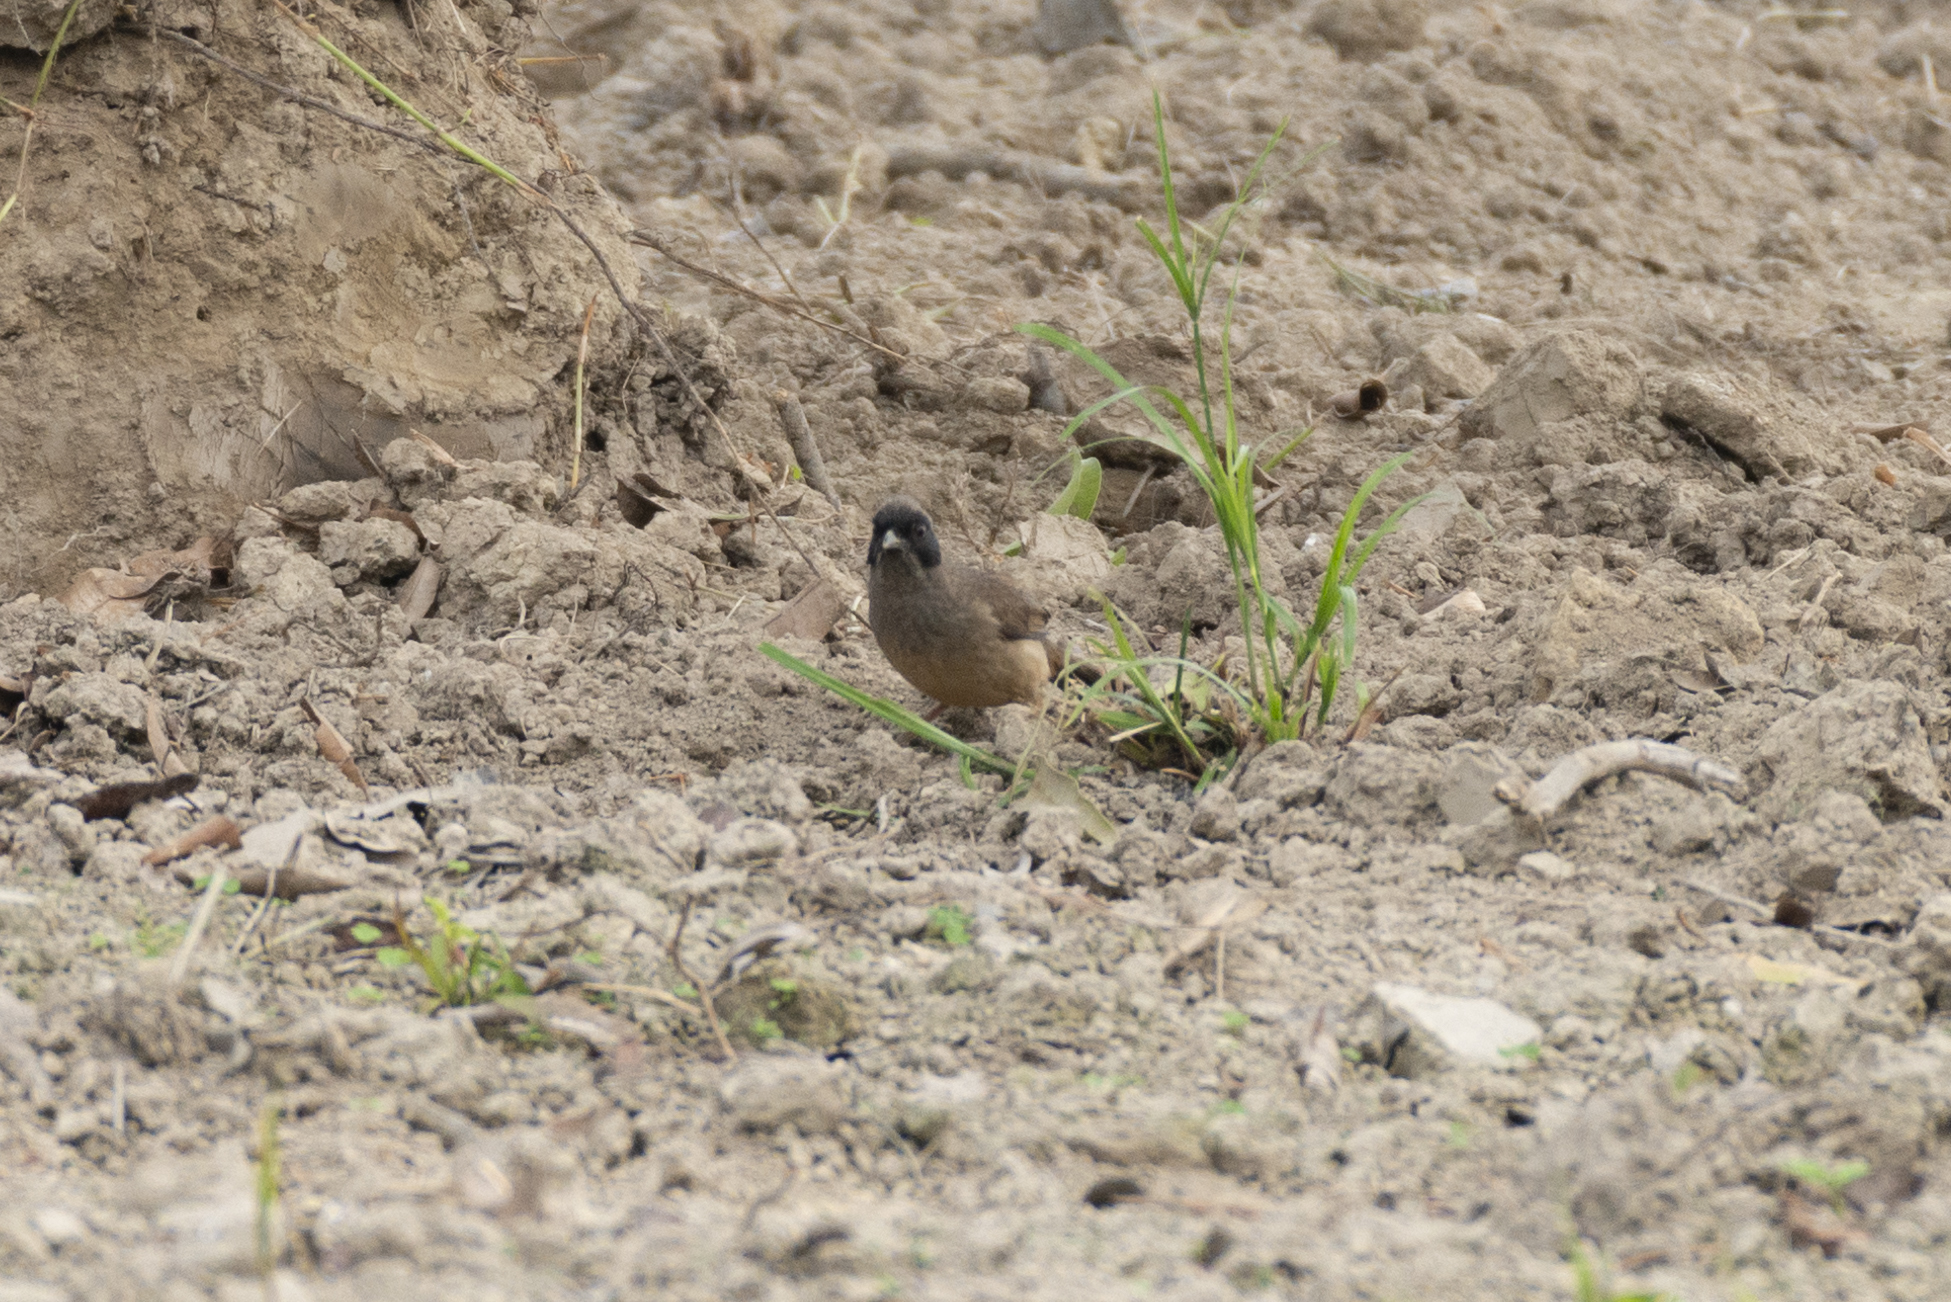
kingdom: Animalia
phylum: Chordata
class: Aves
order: Passeriformes
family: Leiothrichidae
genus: Garrulax
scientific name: Garrulax perspicillatus
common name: Masked laughingthrush
